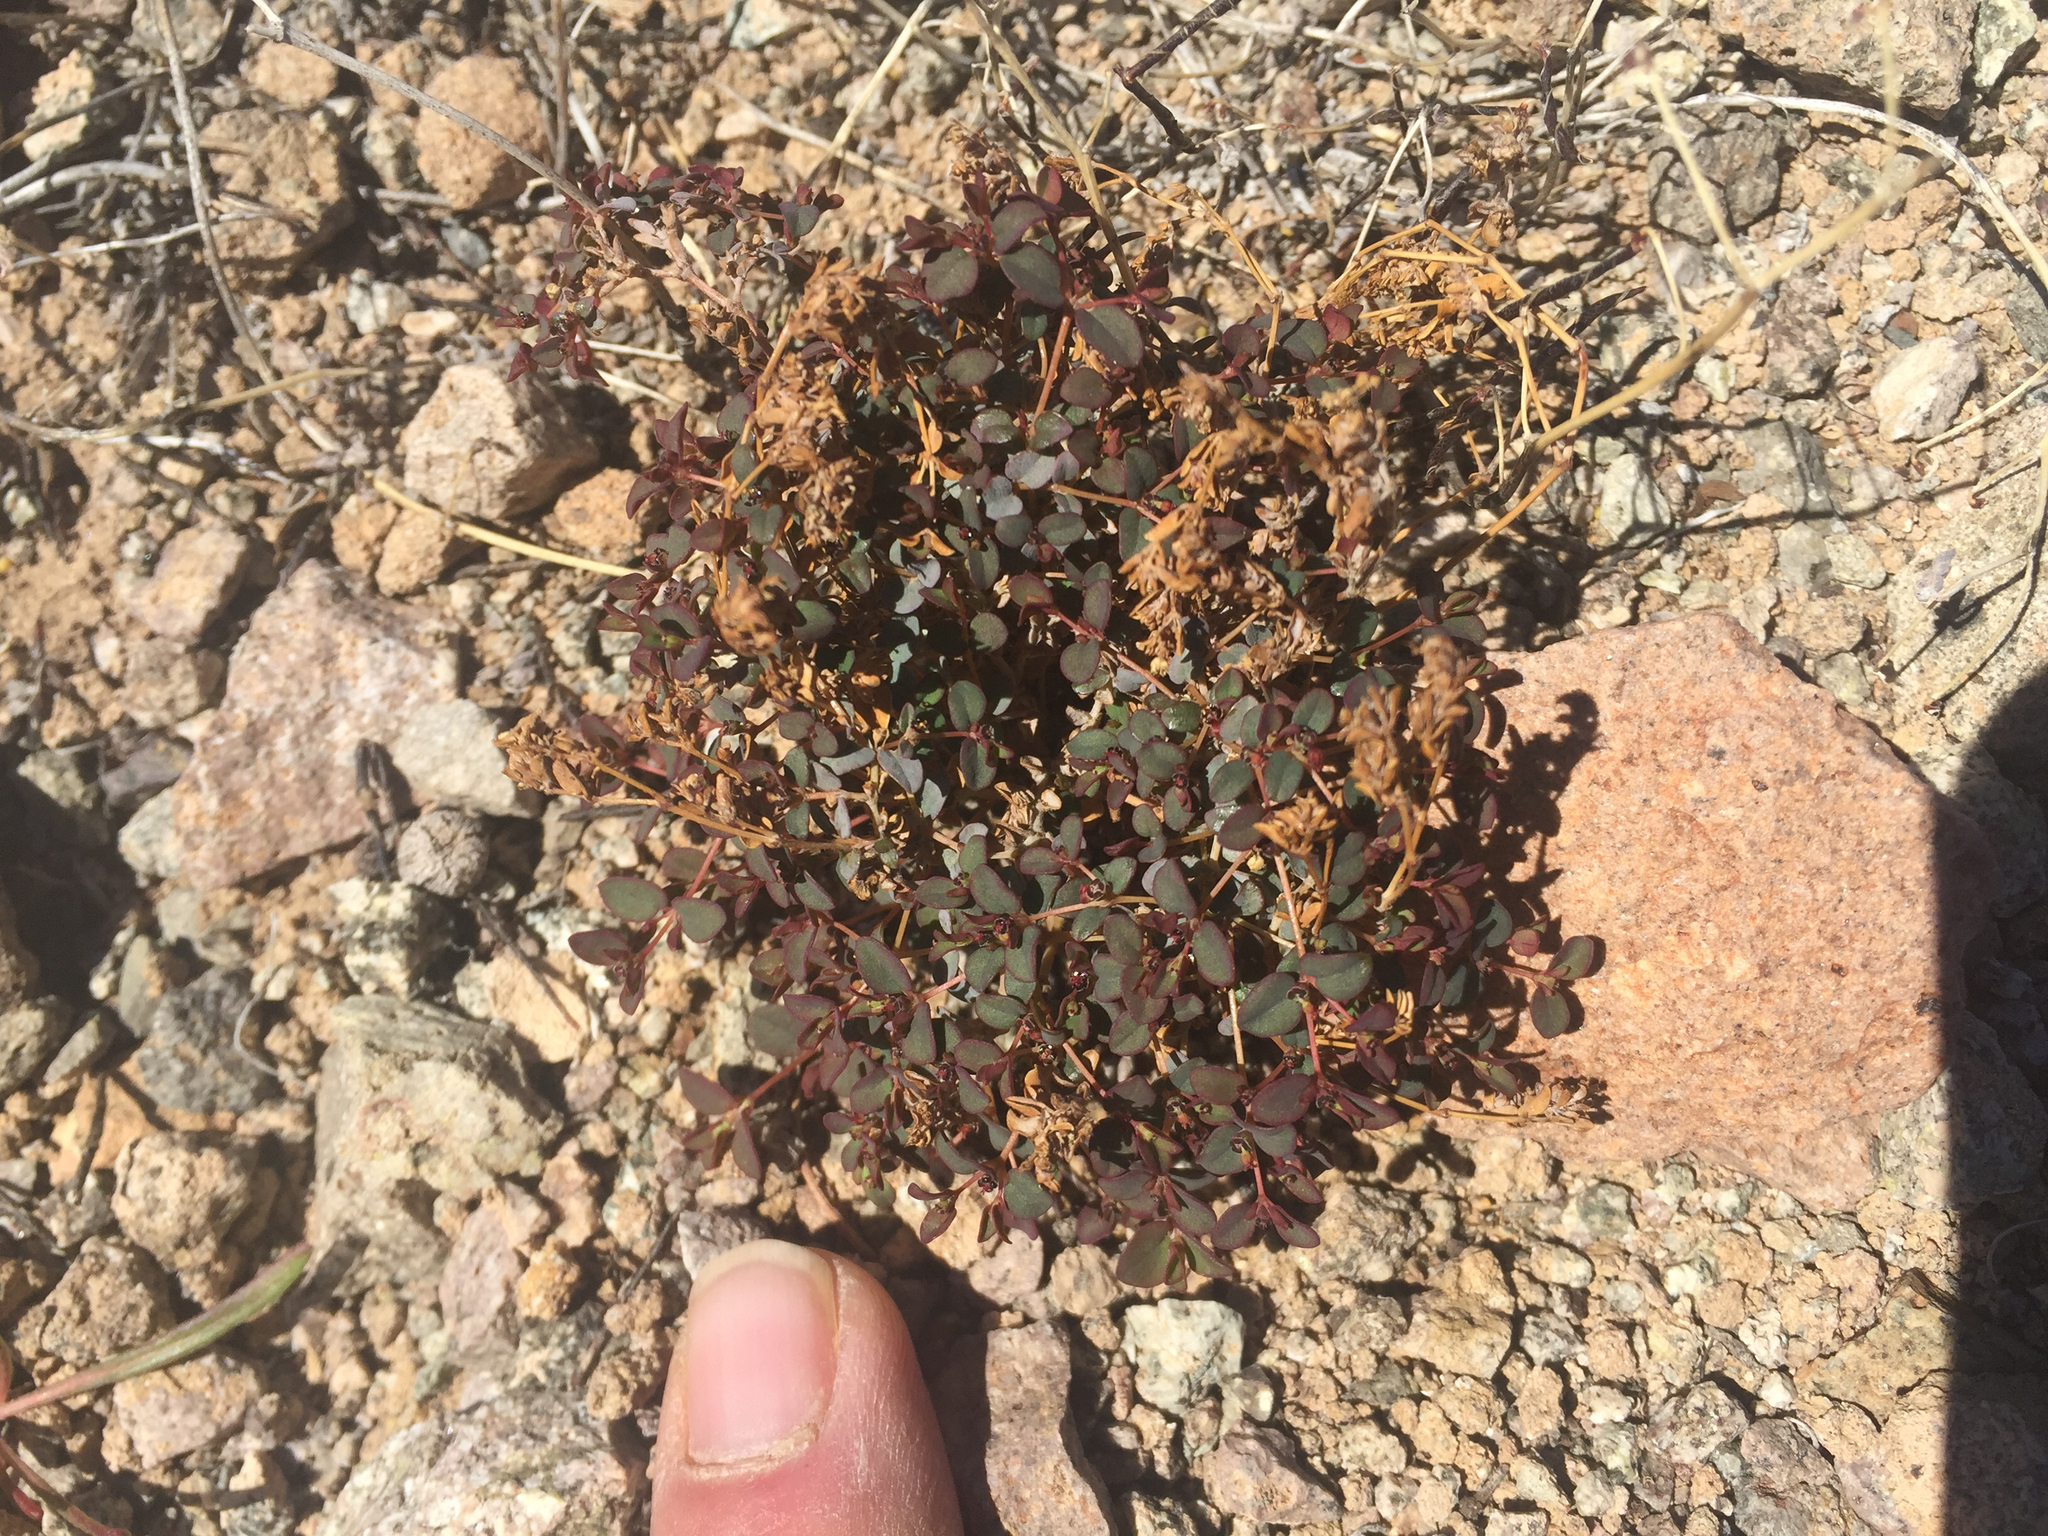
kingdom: Plantae
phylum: Tracheophyta
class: Magnoliopsida
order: Malpighiales
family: Euphorbiaceae
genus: Euphorbia
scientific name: Euphorbia polycarpa
